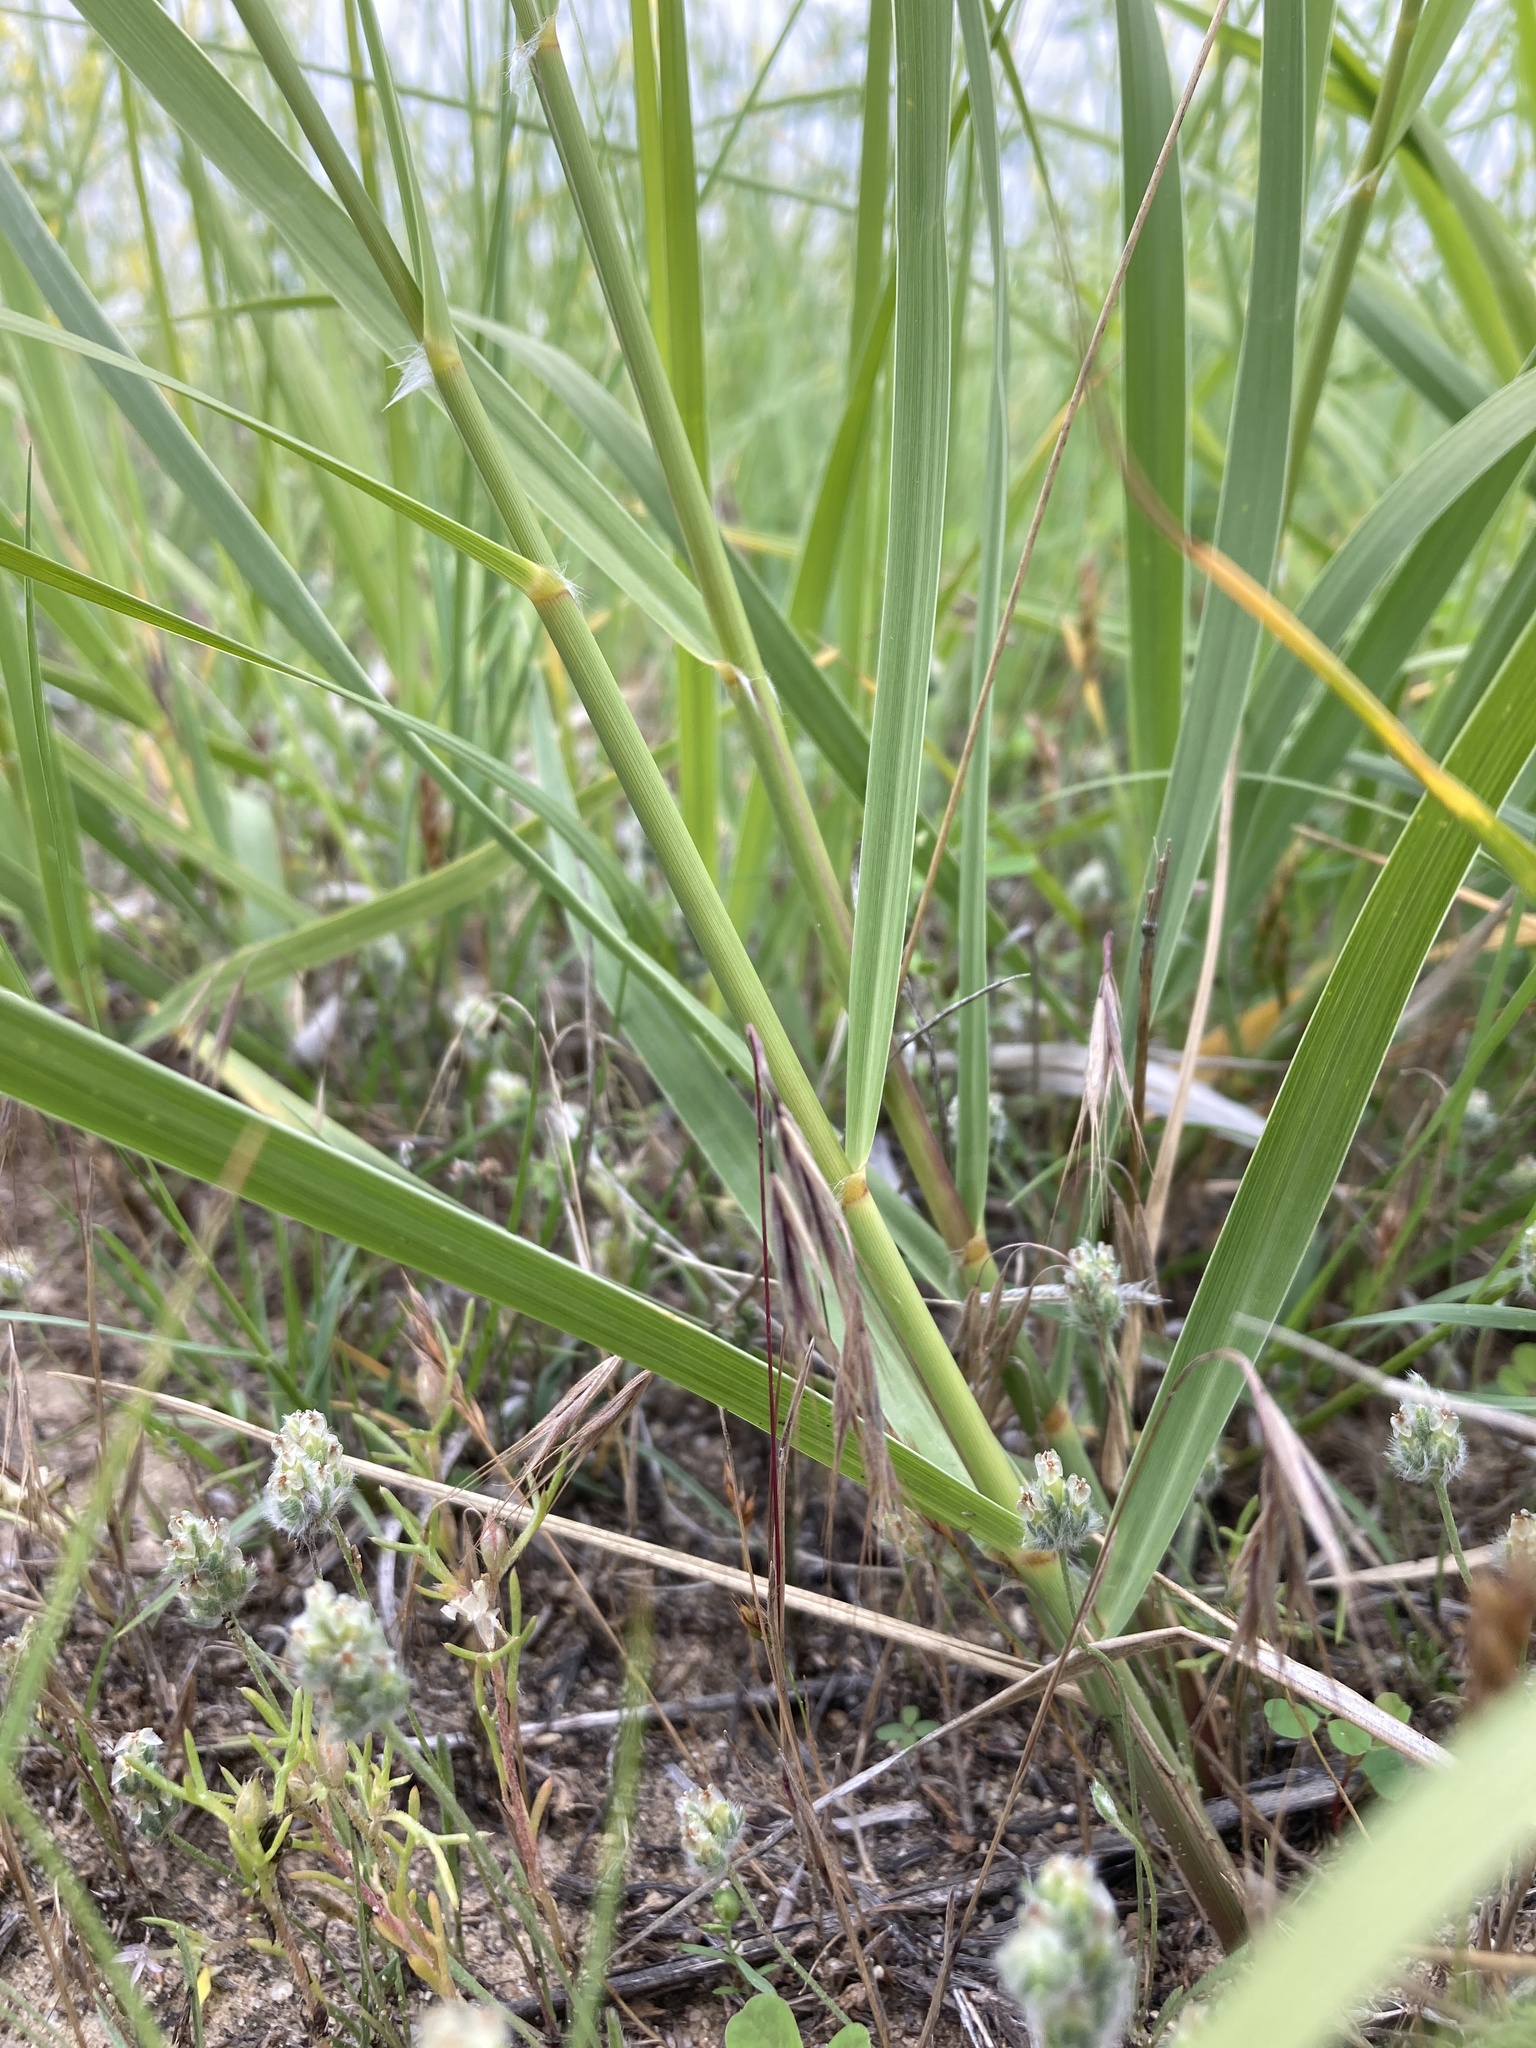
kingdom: Plantae
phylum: Tracheophyta
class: Liliopsida
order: Poales
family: Poaceae
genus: Sporobolus
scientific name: Sporobolus rigidus
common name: Prairie sandreed
